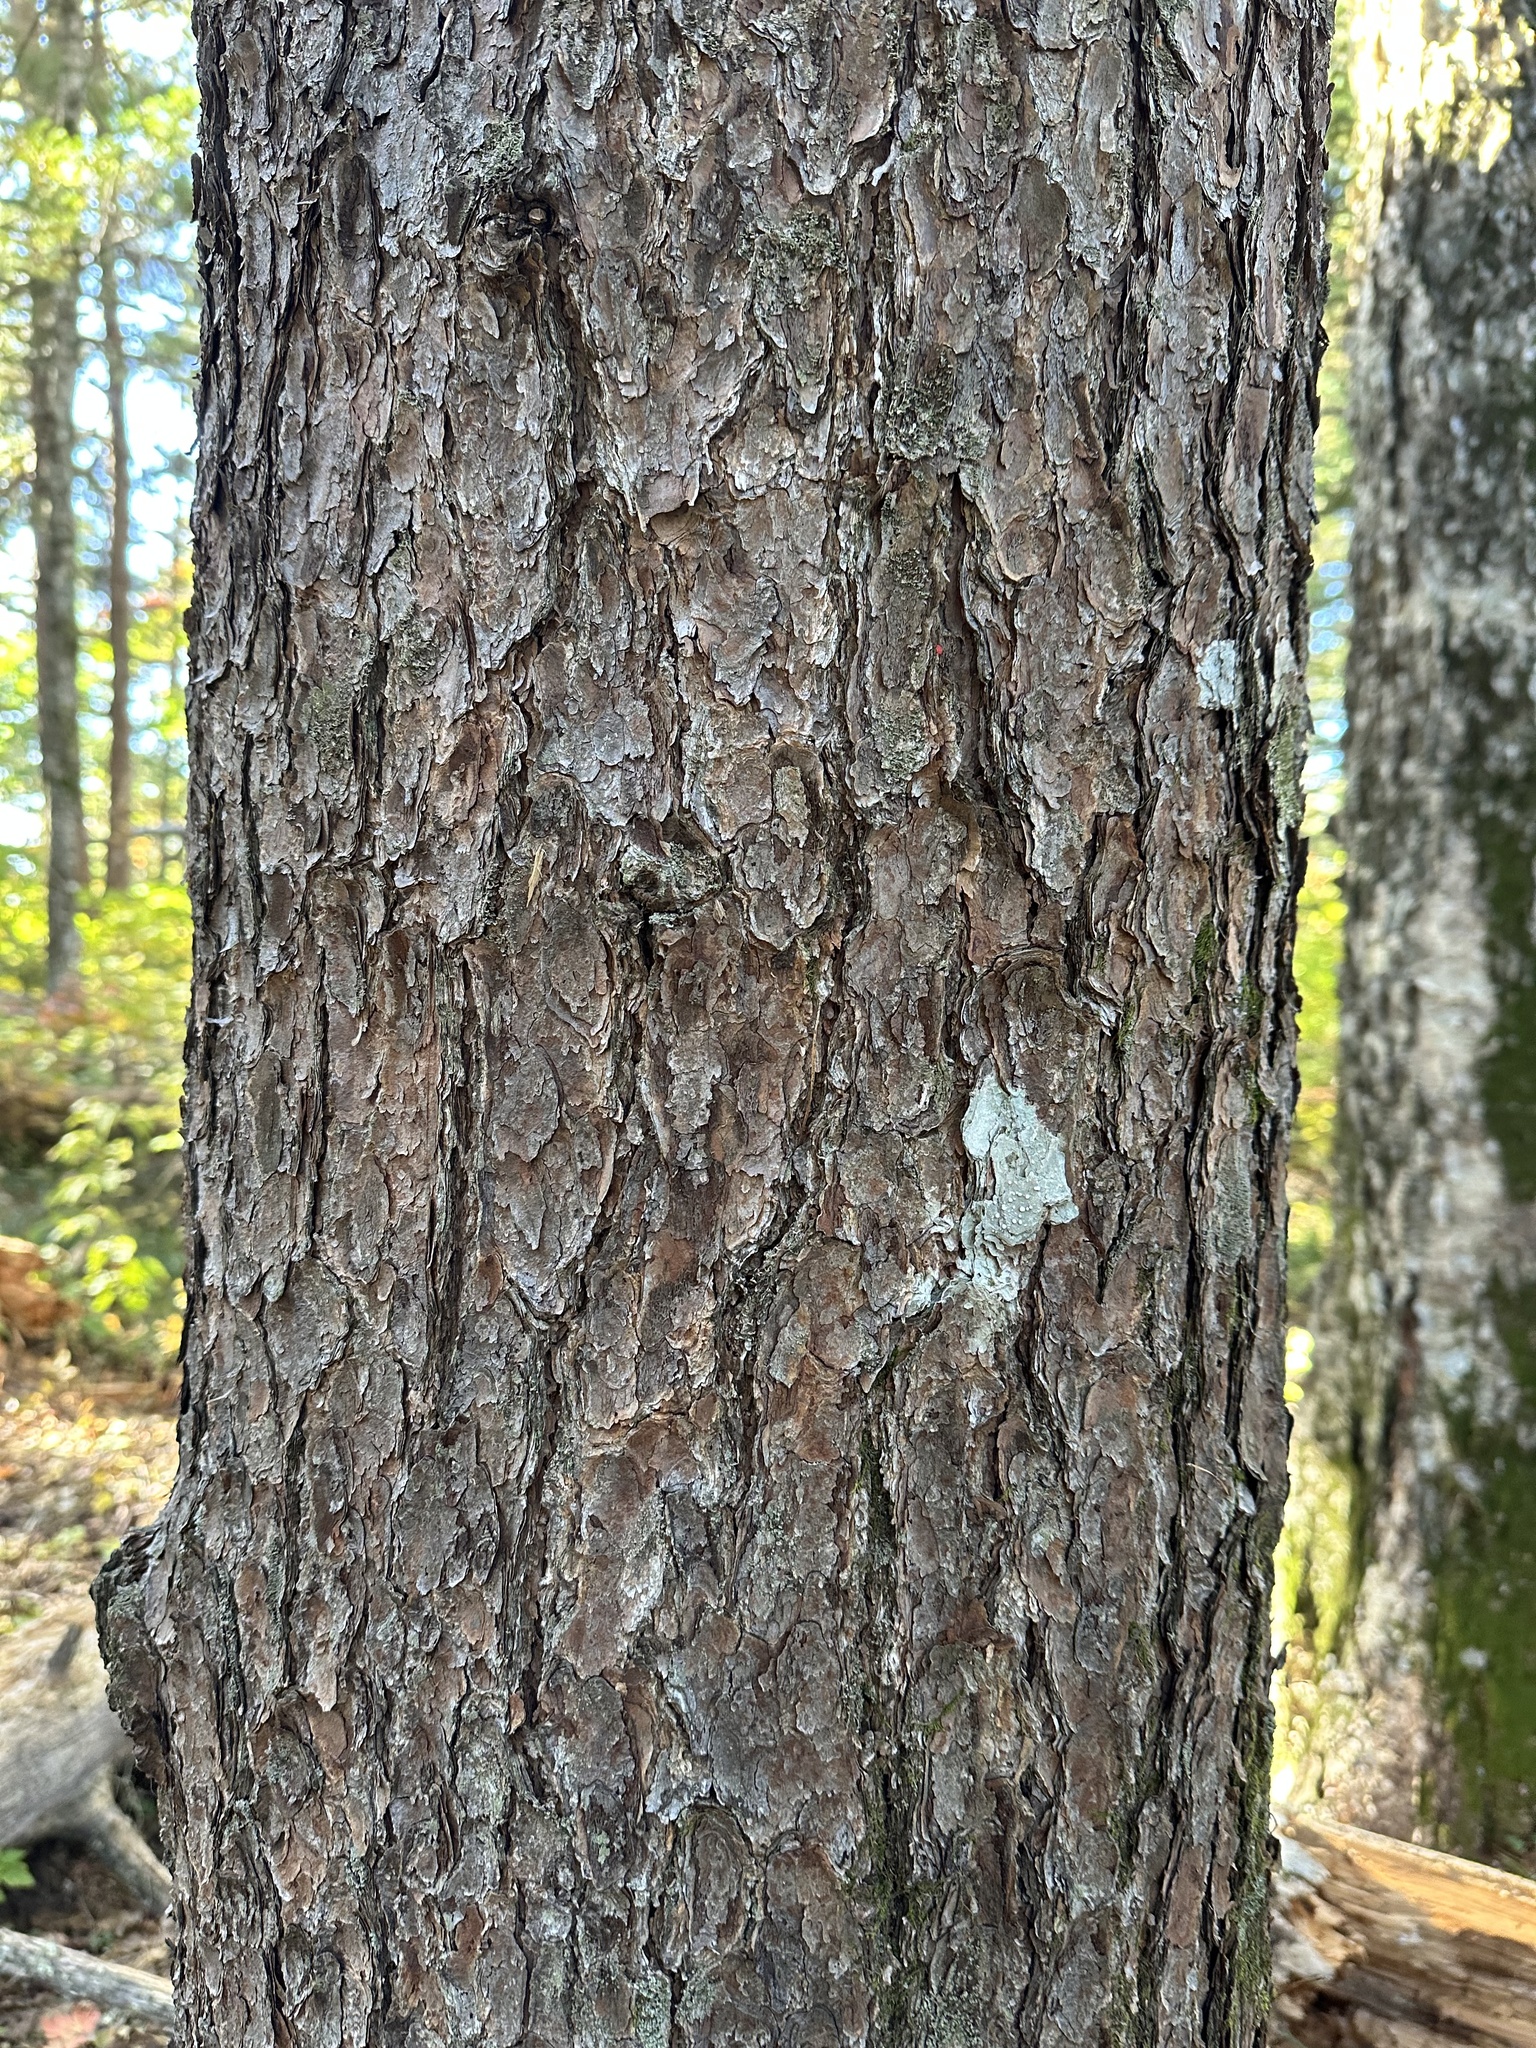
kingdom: Plantae
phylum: Tracheophyta
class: Pinopsida
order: Pinales
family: Pinaceae
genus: Pinus
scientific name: Pinus koraiensis
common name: Korean pine
